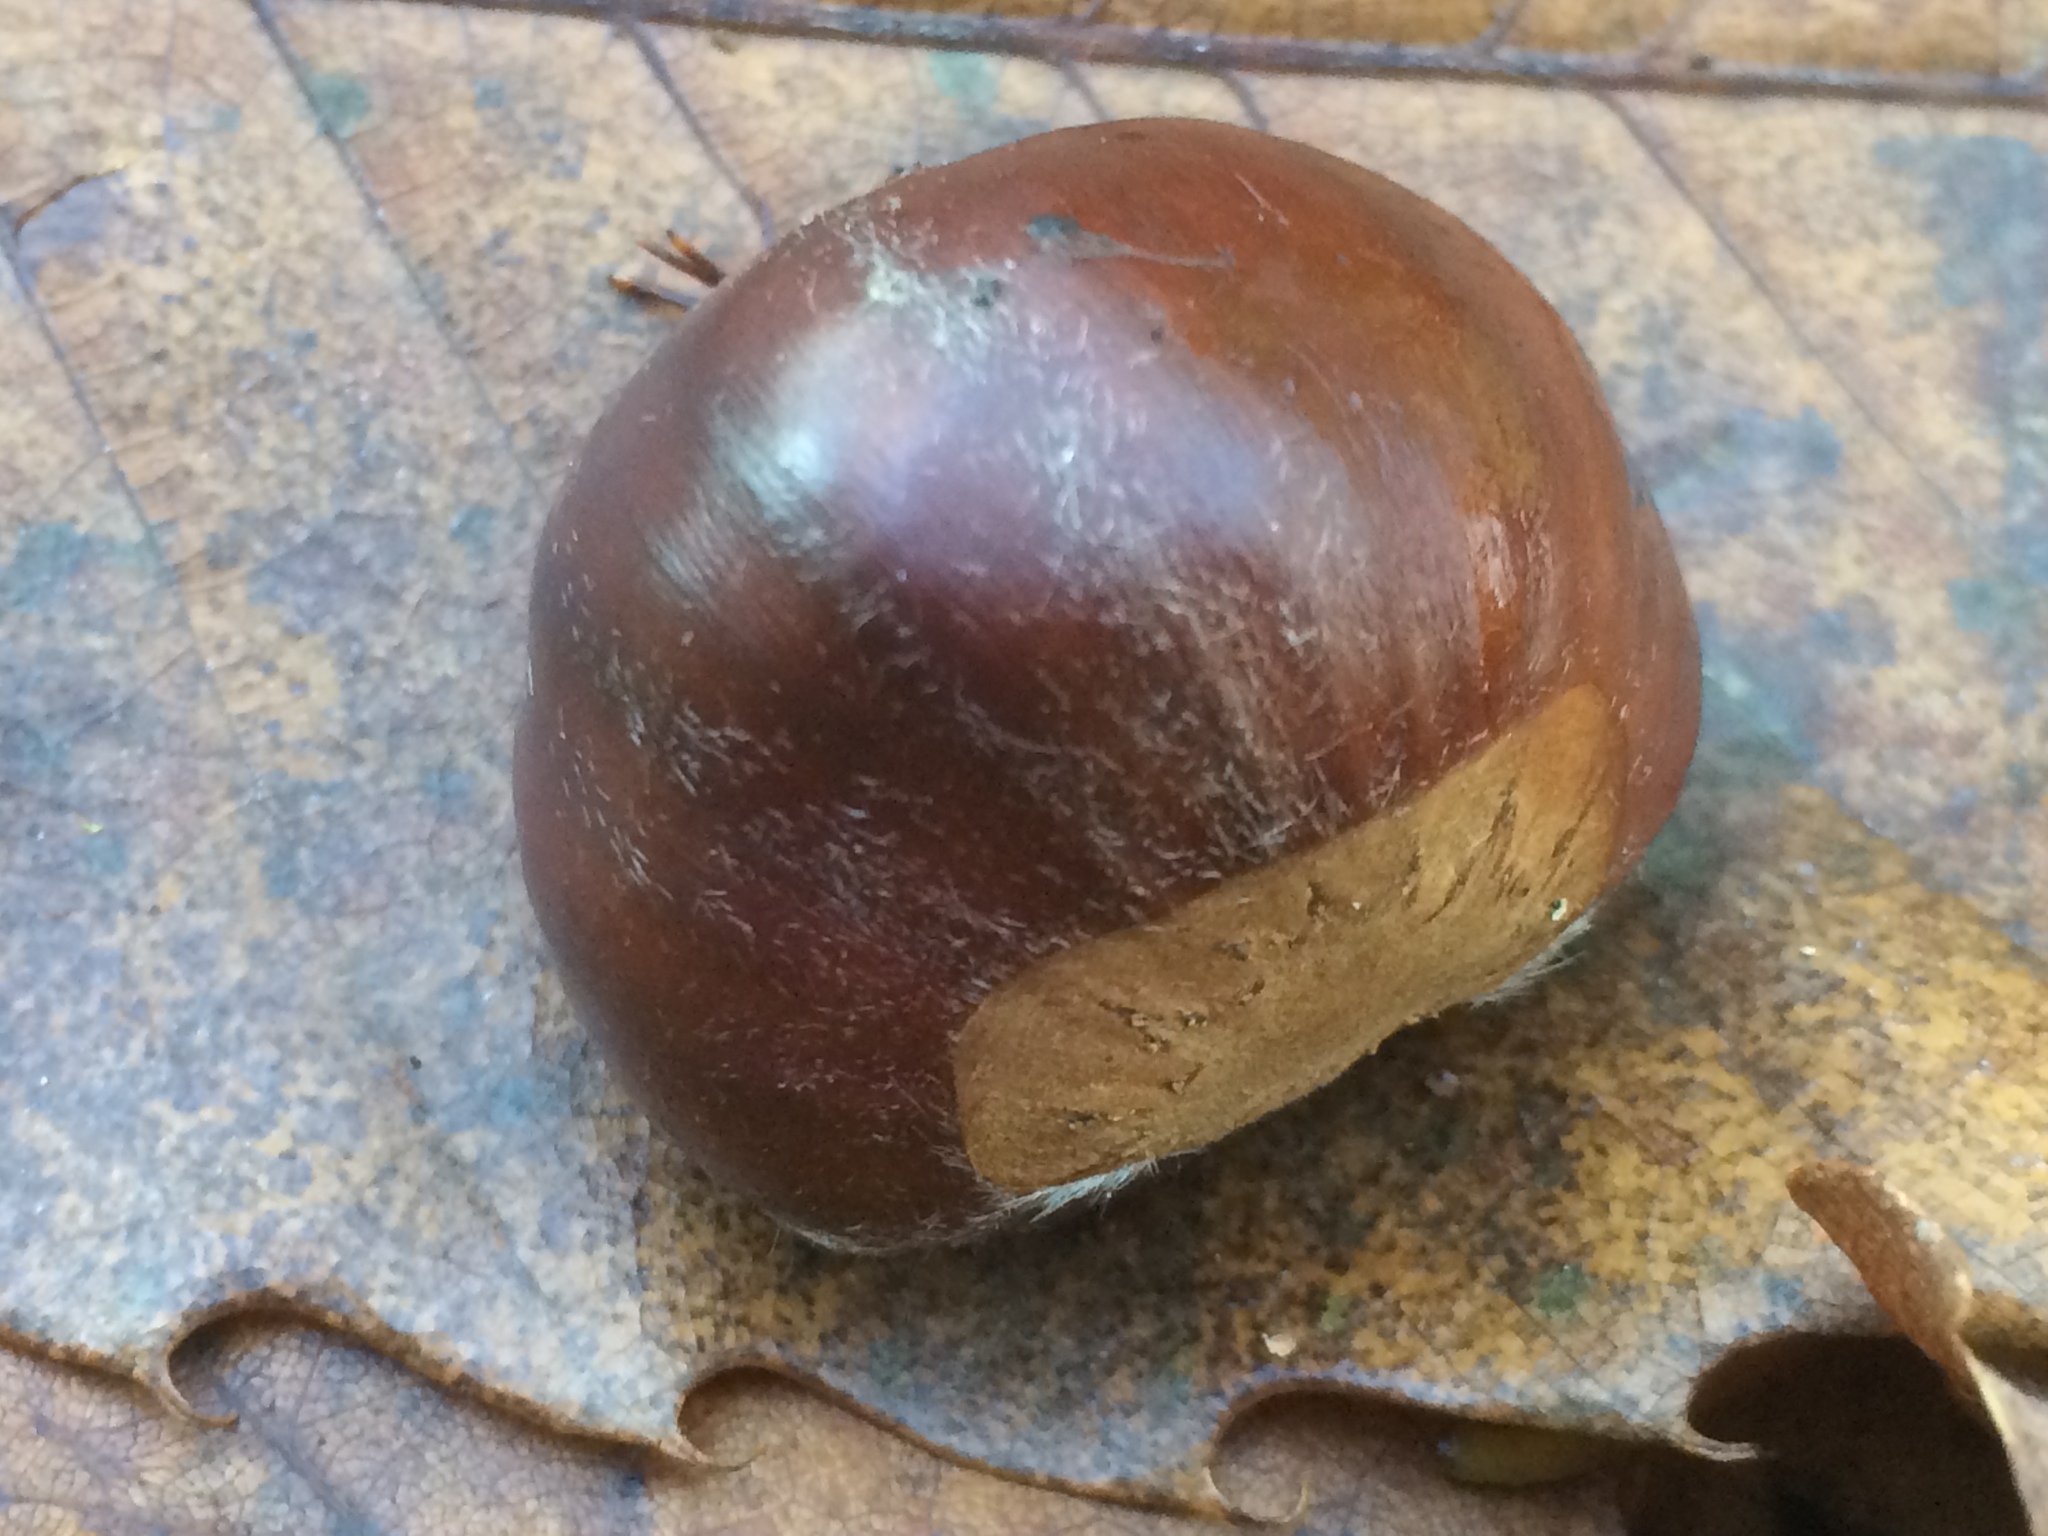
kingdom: Plantae
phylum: Tracheophyta
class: Magnoliopsida
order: Fagales
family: Fagaceae
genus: Castanea
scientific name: Castanea sativa
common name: Sweet chestnut
